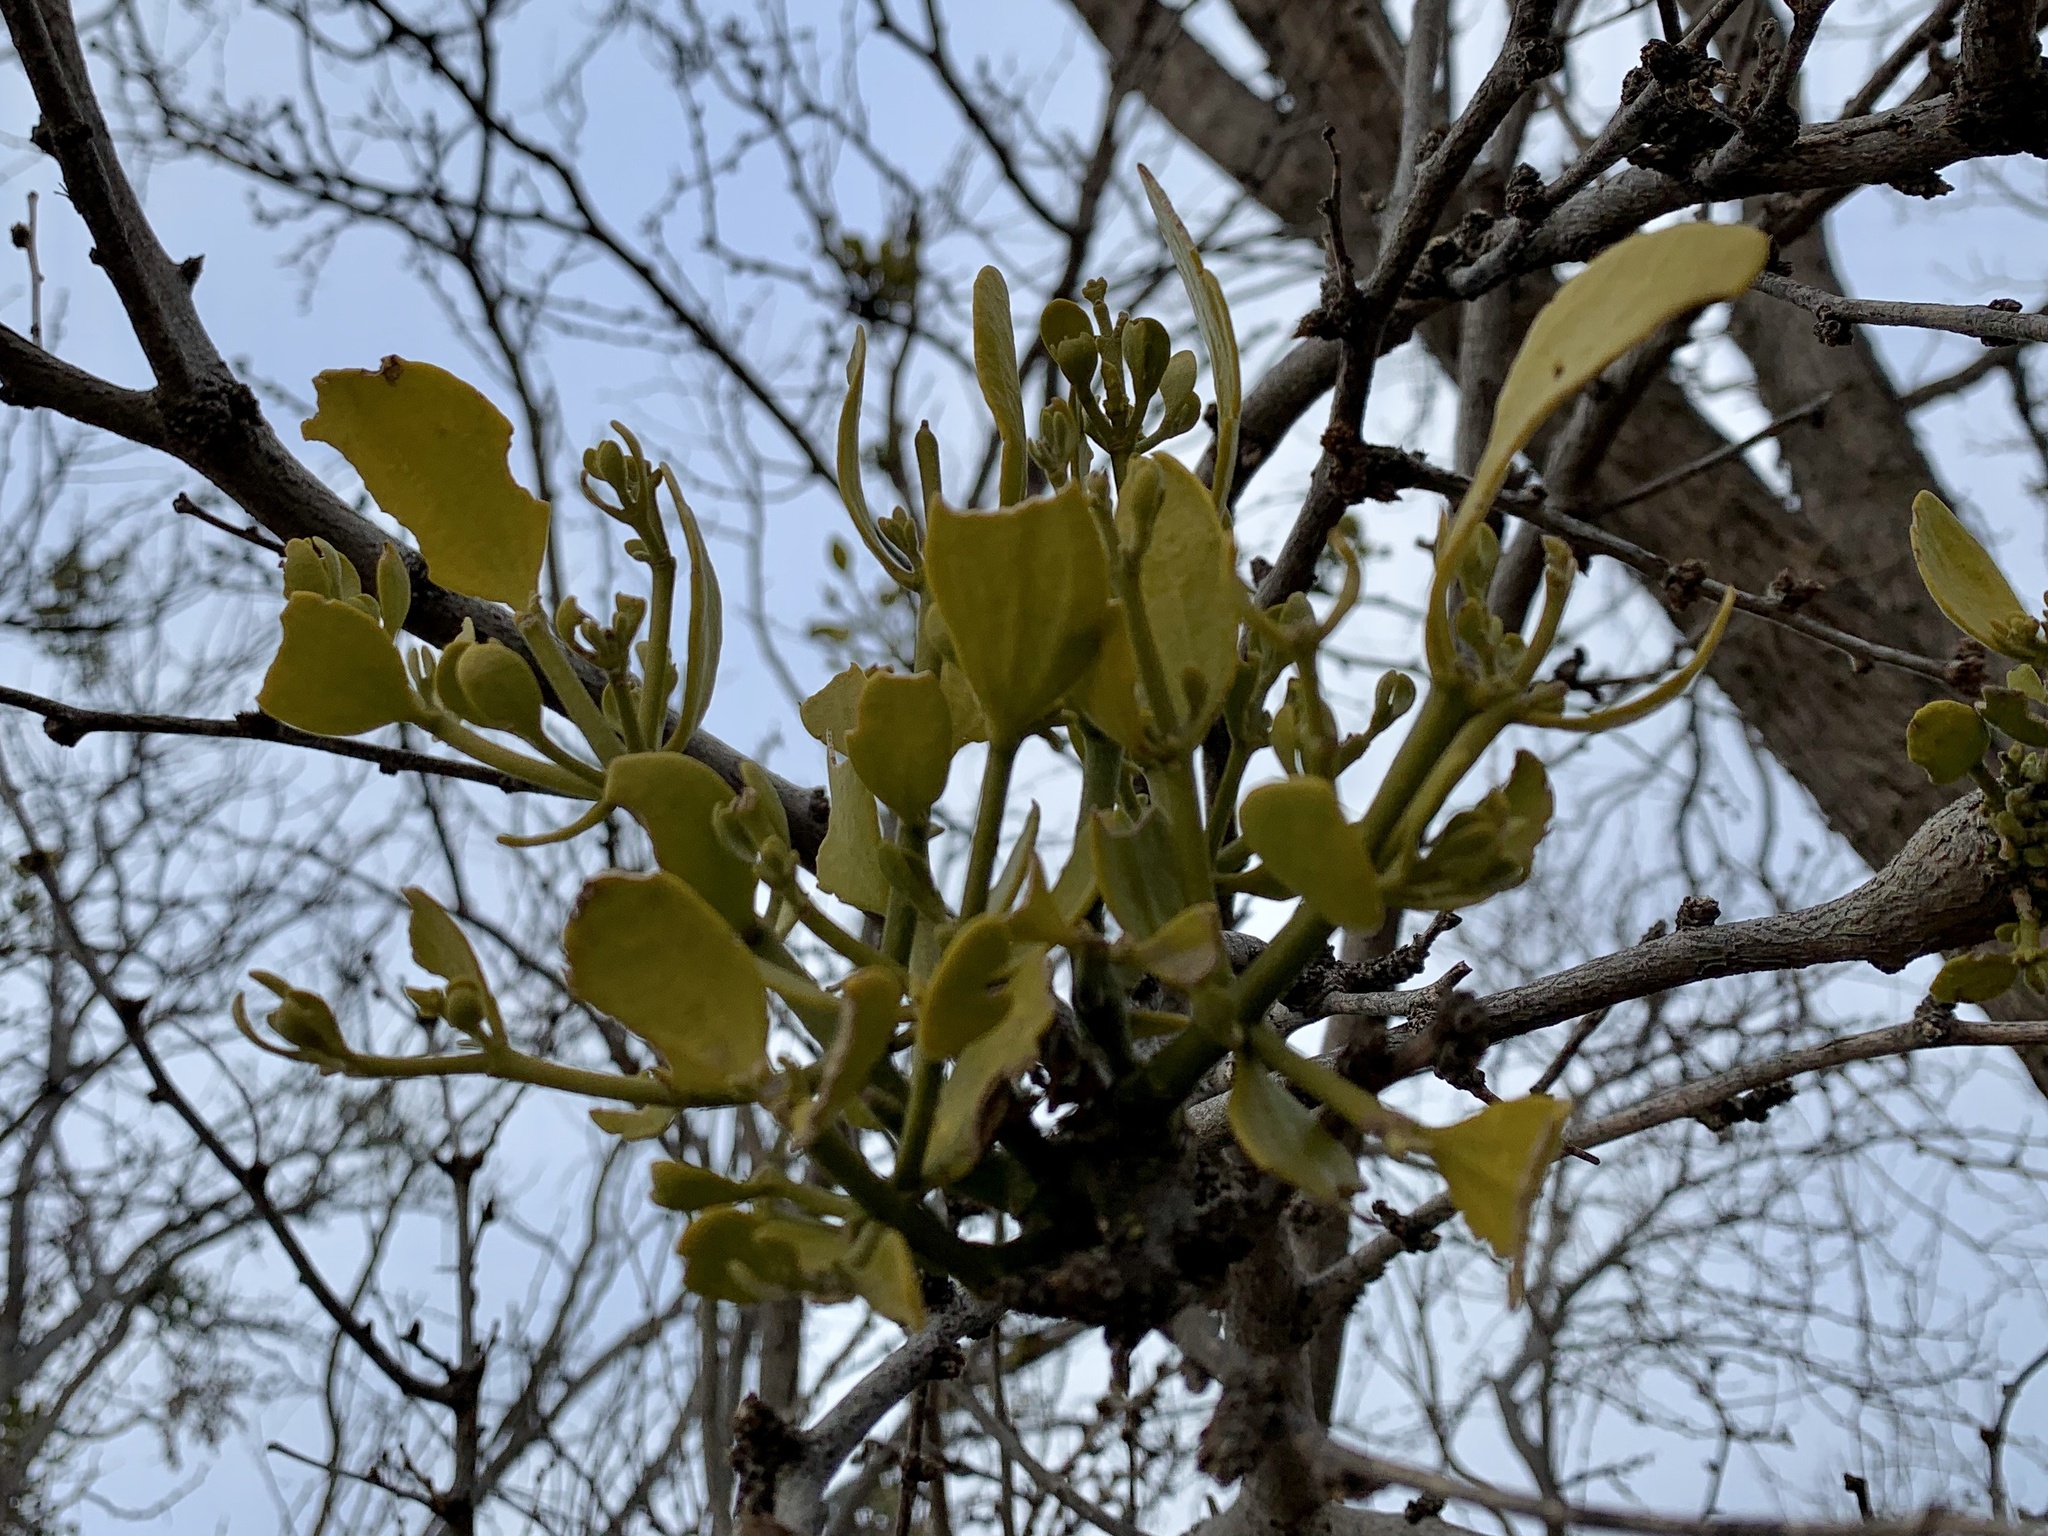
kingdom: Plantae
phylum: Tracheophyta
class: Magnoliopsida
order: Santalales
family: Viscaceae
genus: Phoradendron
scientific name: Phoradendron leucarpum
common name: Pacific mistletoe
